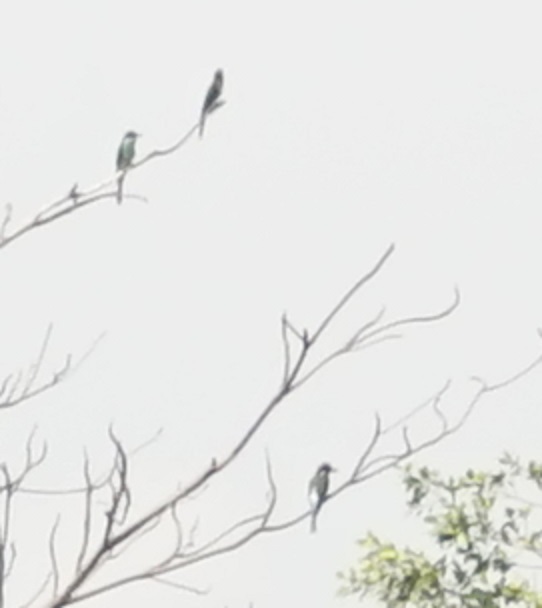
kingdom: Animalia
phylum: Chordata
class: Aves
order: Coraciiformes
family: Meropidae
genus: Merops
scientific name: Merops viridis
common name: Blue-throated bee-eater
